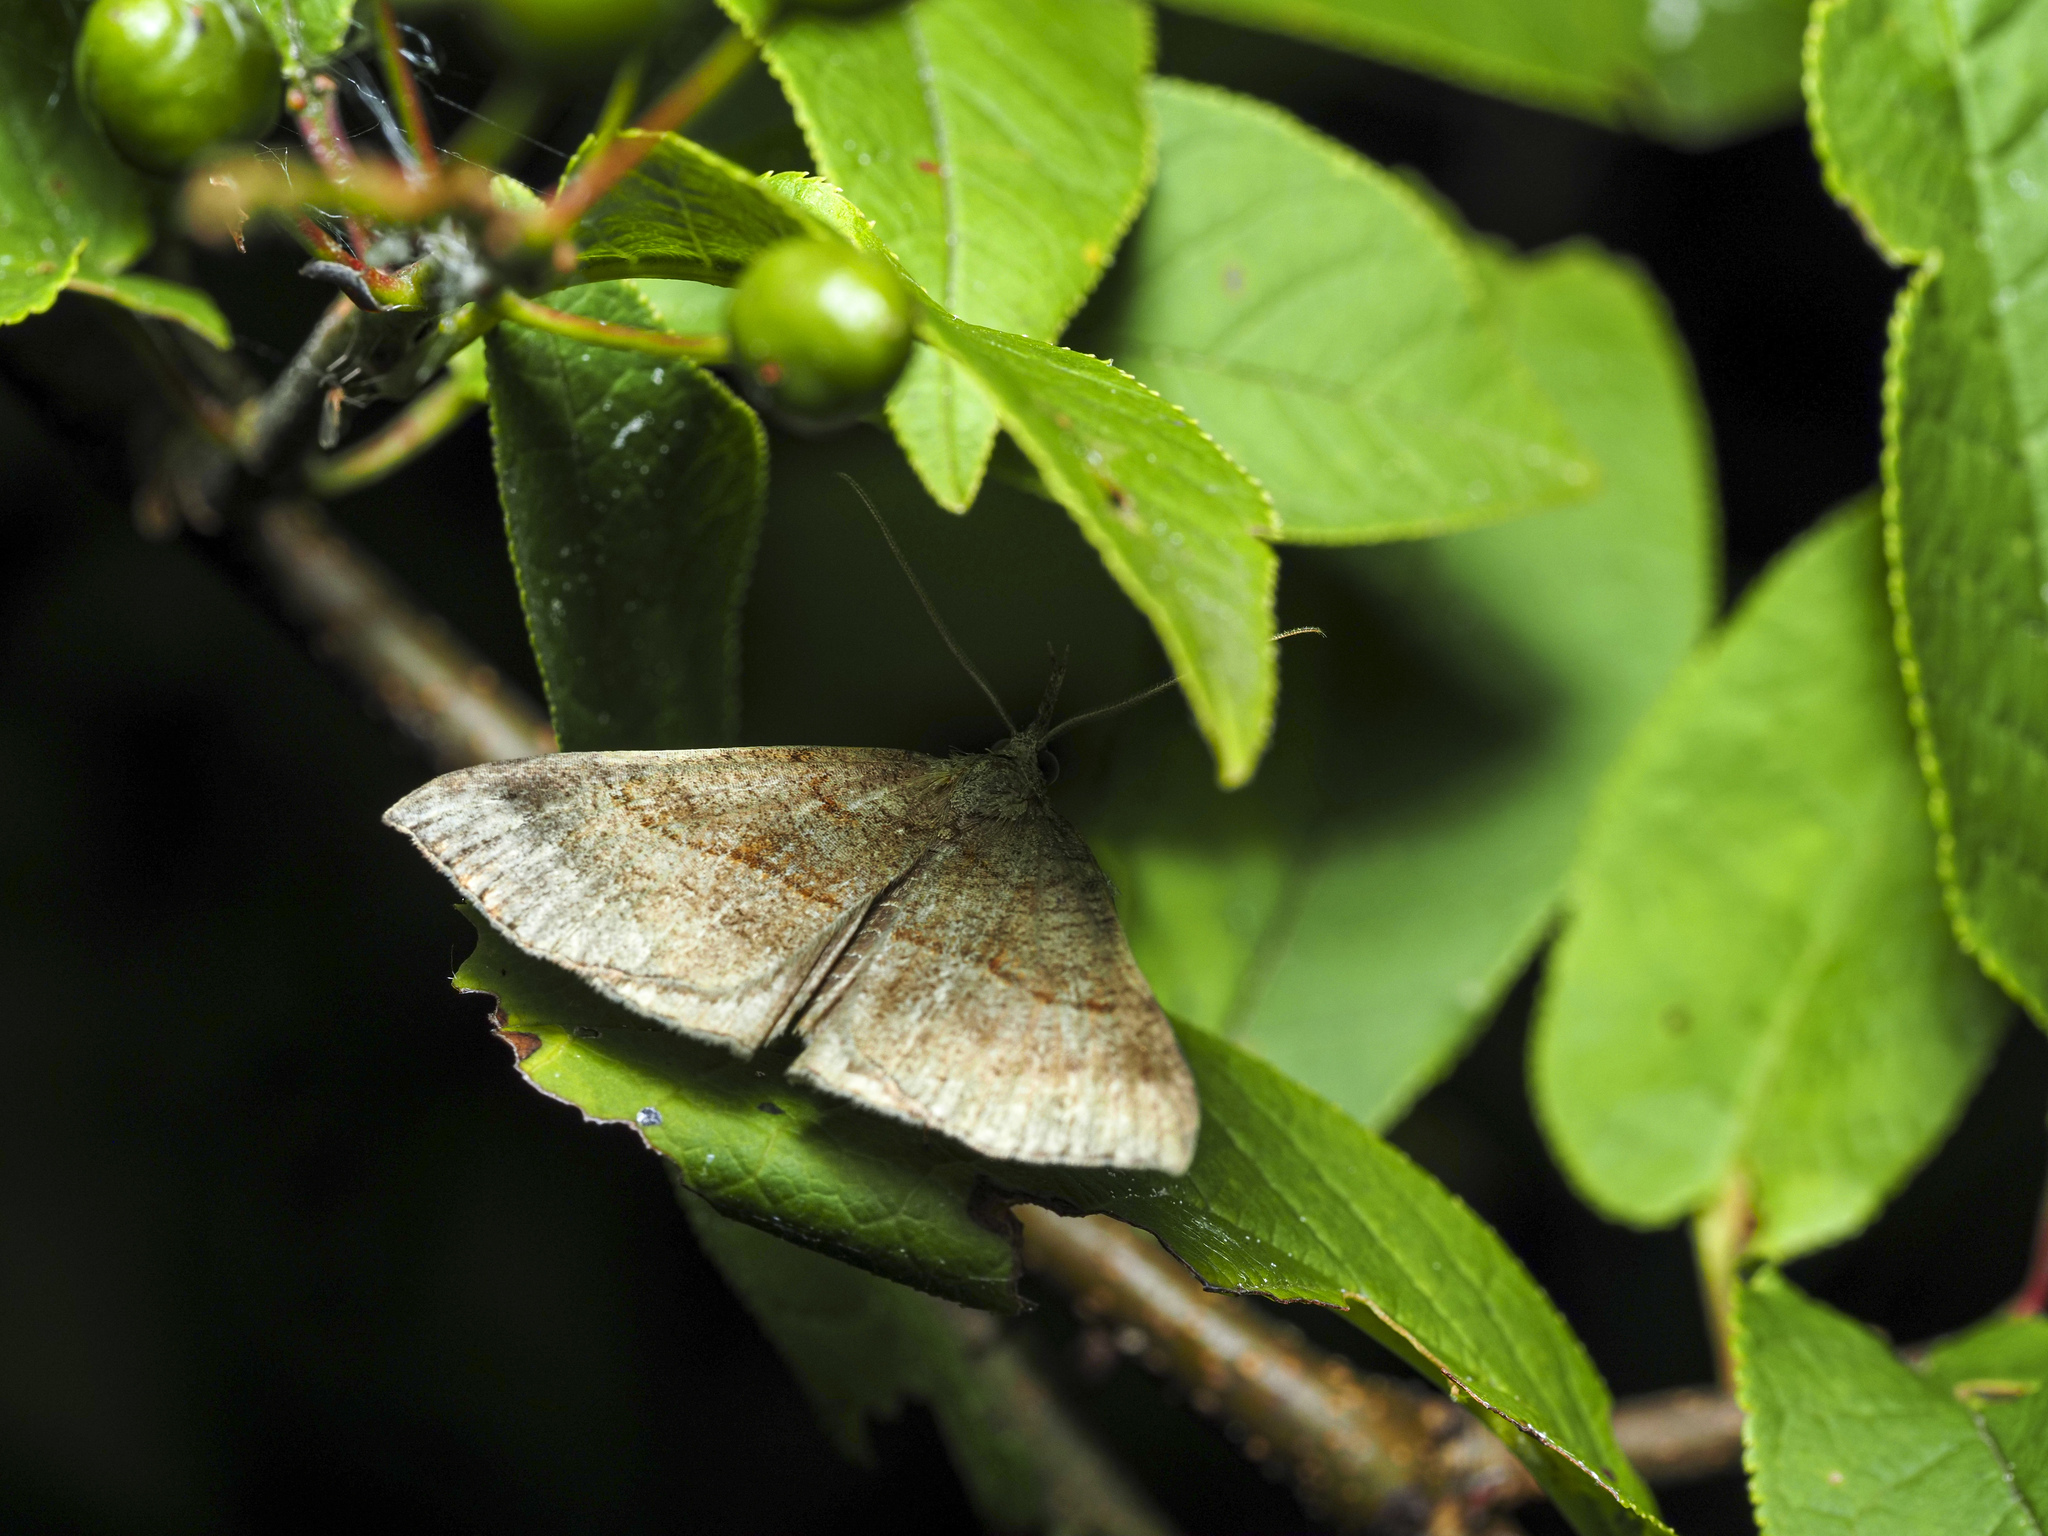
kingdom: Animalia
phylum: Arthropoda
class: Insecta
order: Lepidoptera
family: Erebidae
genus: Hypena
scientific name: Hypena proboscidalis
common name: Snout
